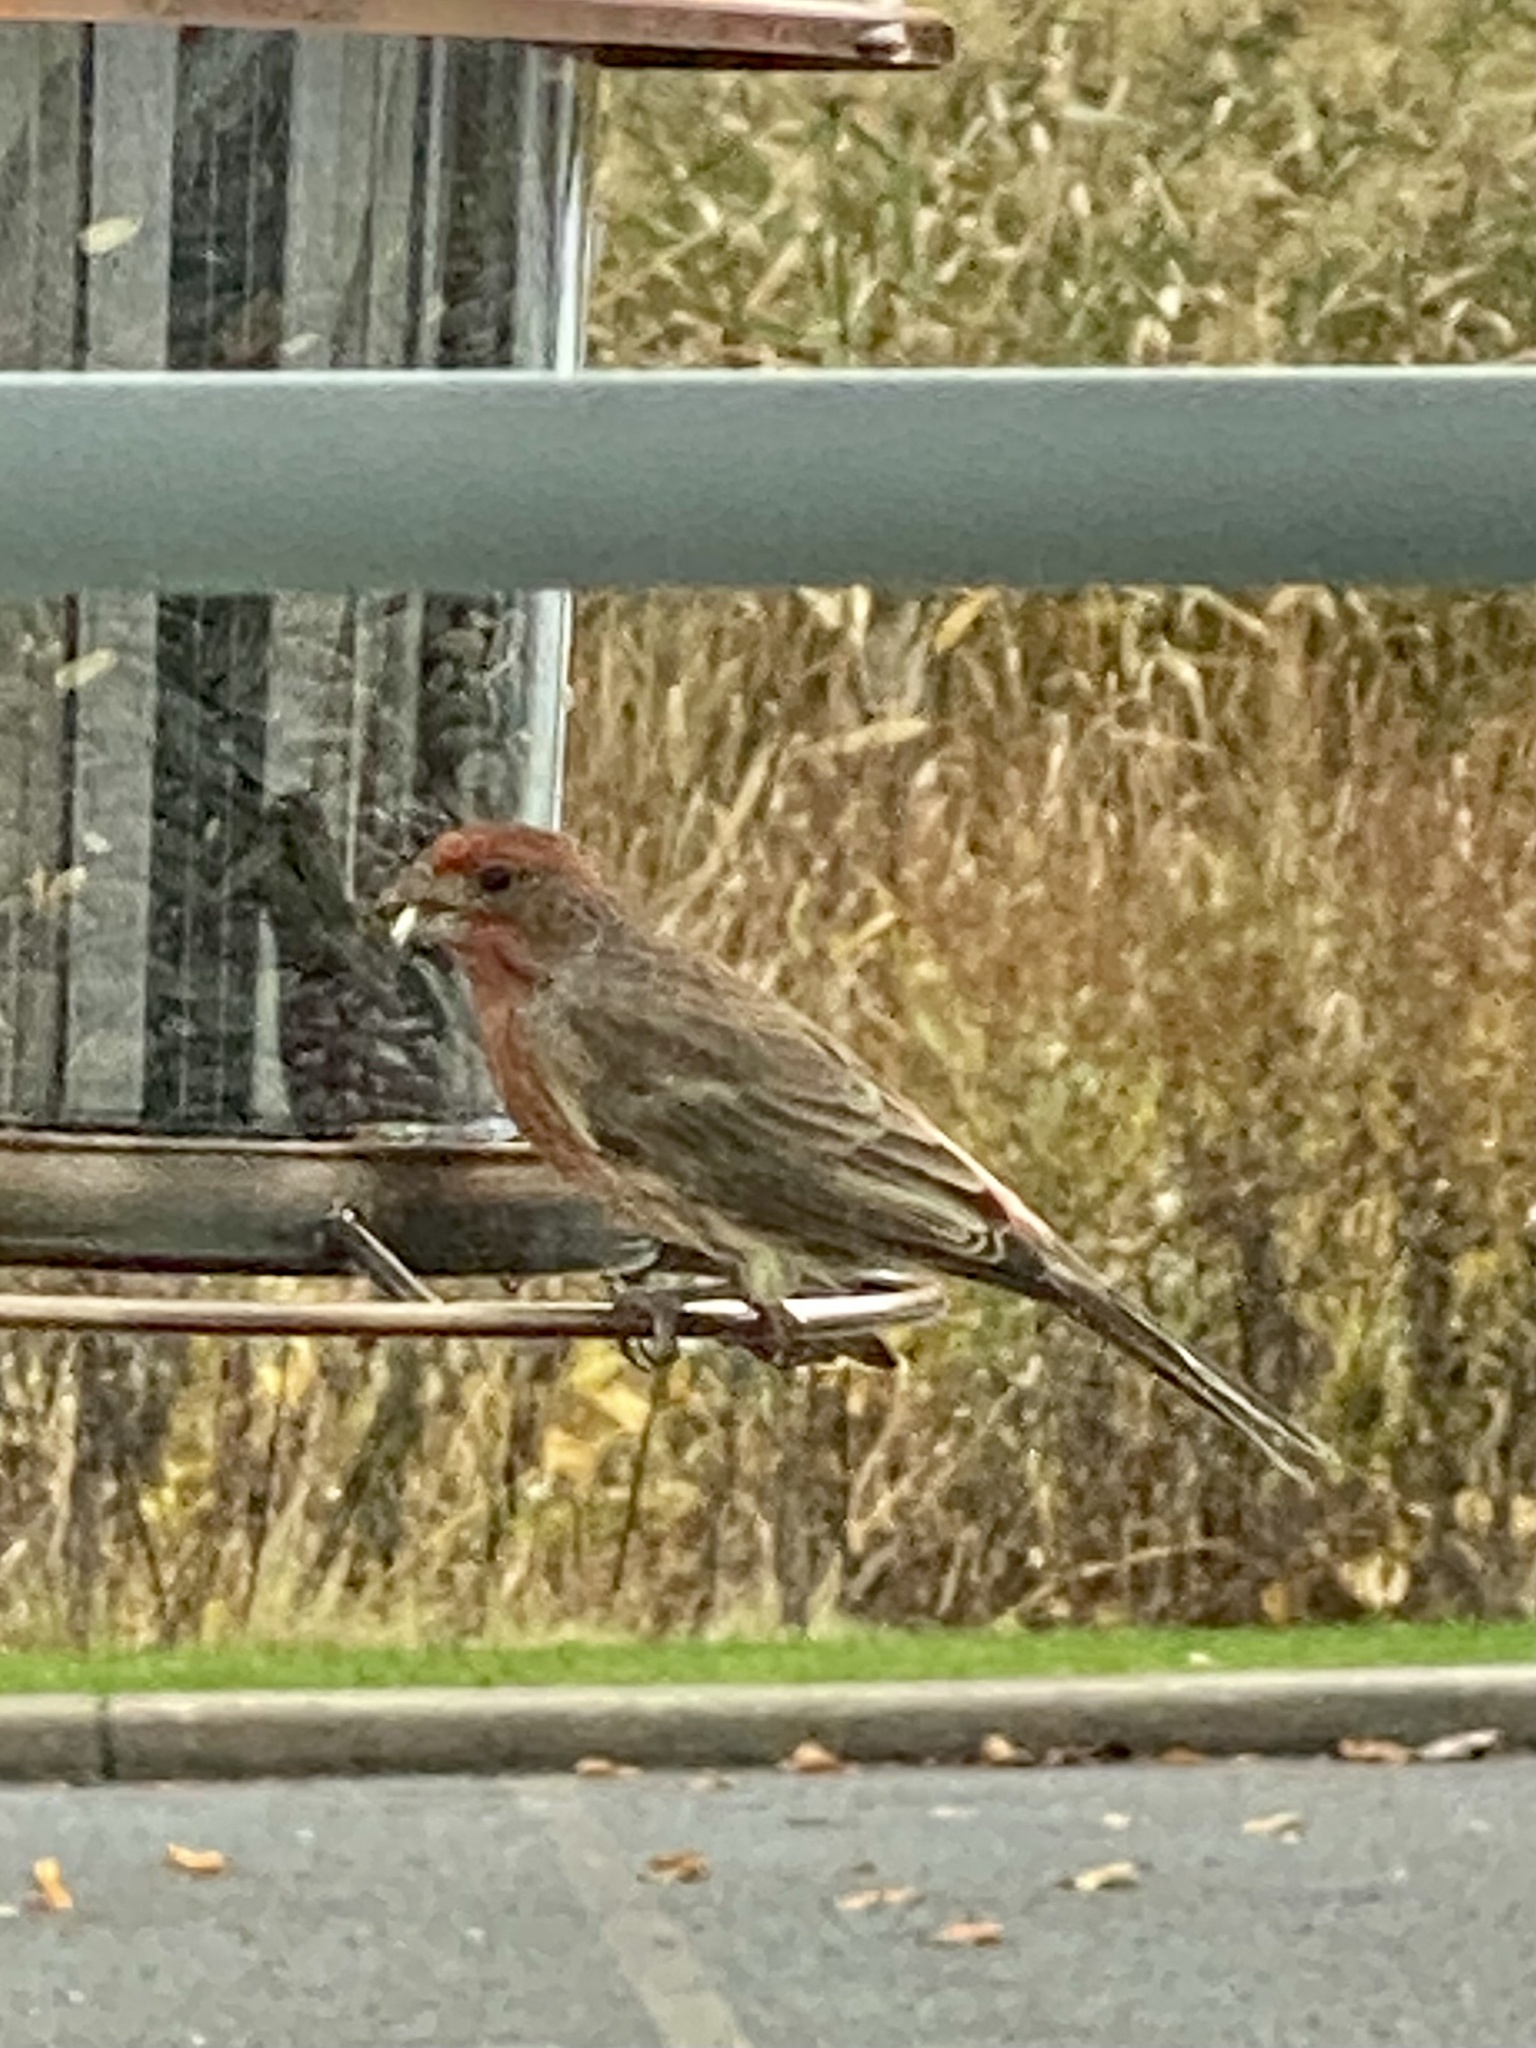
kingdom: Animalia
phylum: Chordata
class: Aves
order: Passeriformes
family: Fringillidae
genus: Haemorhous
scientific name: Haemorhous mexicanus
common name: House finch
